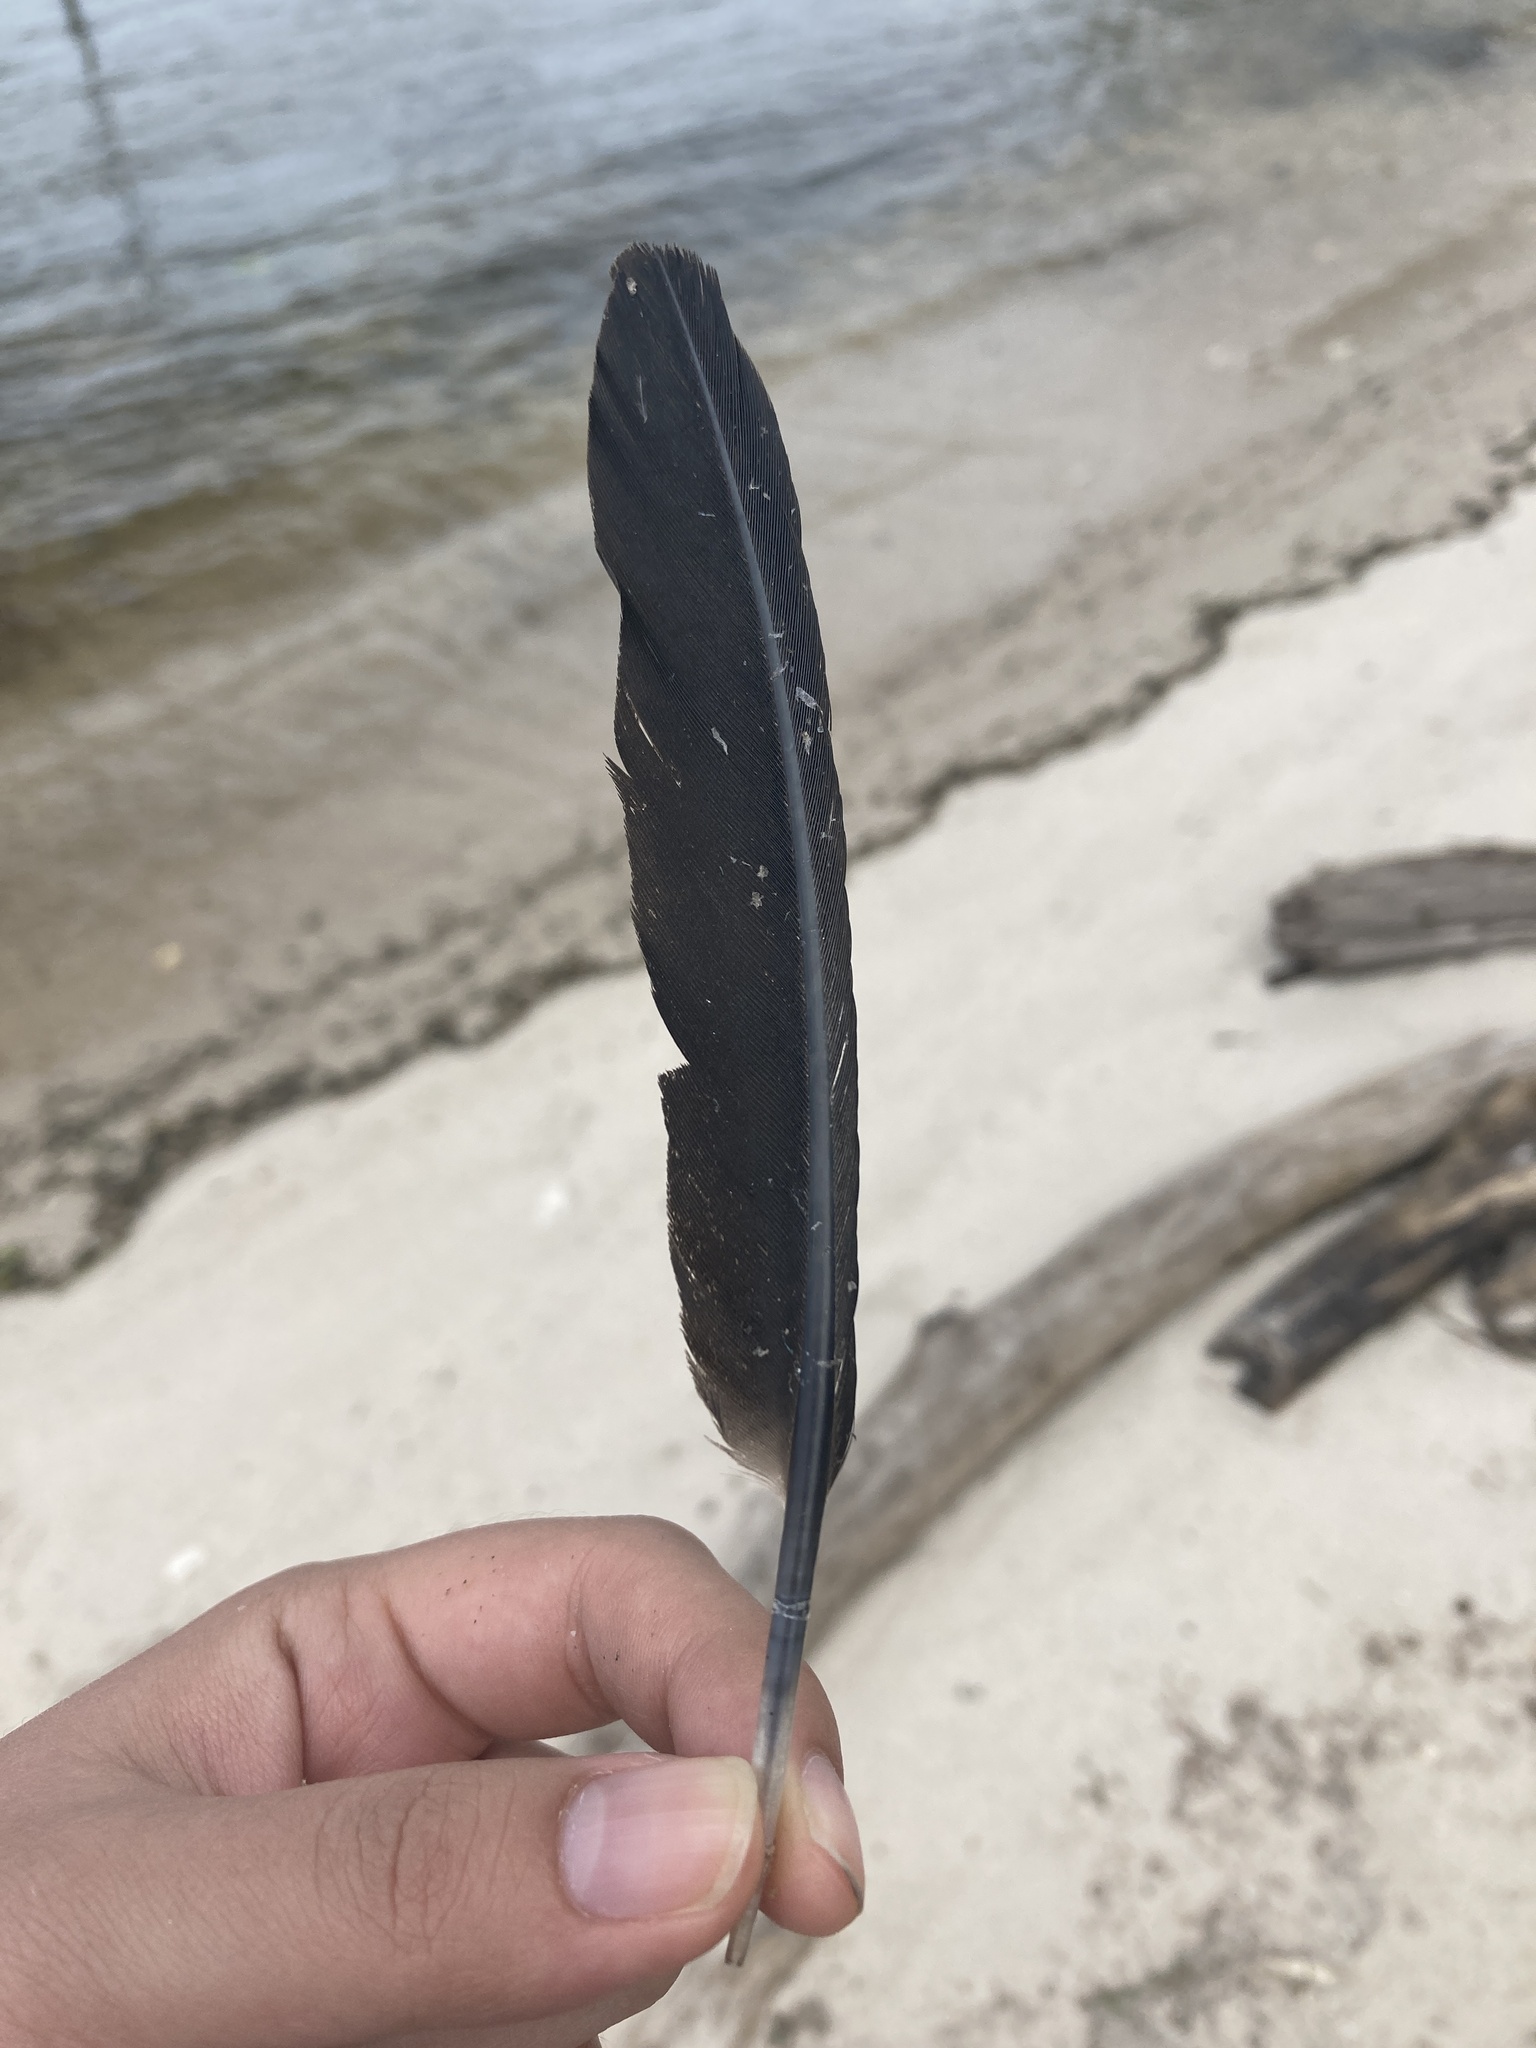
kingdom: Animalia
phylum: Chordata
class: Aves
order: Suliformes
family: Phalacrocoracidae
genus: Phalacrocorax
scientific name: Phalacrocorax auritus
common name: Double-crested cormorant
